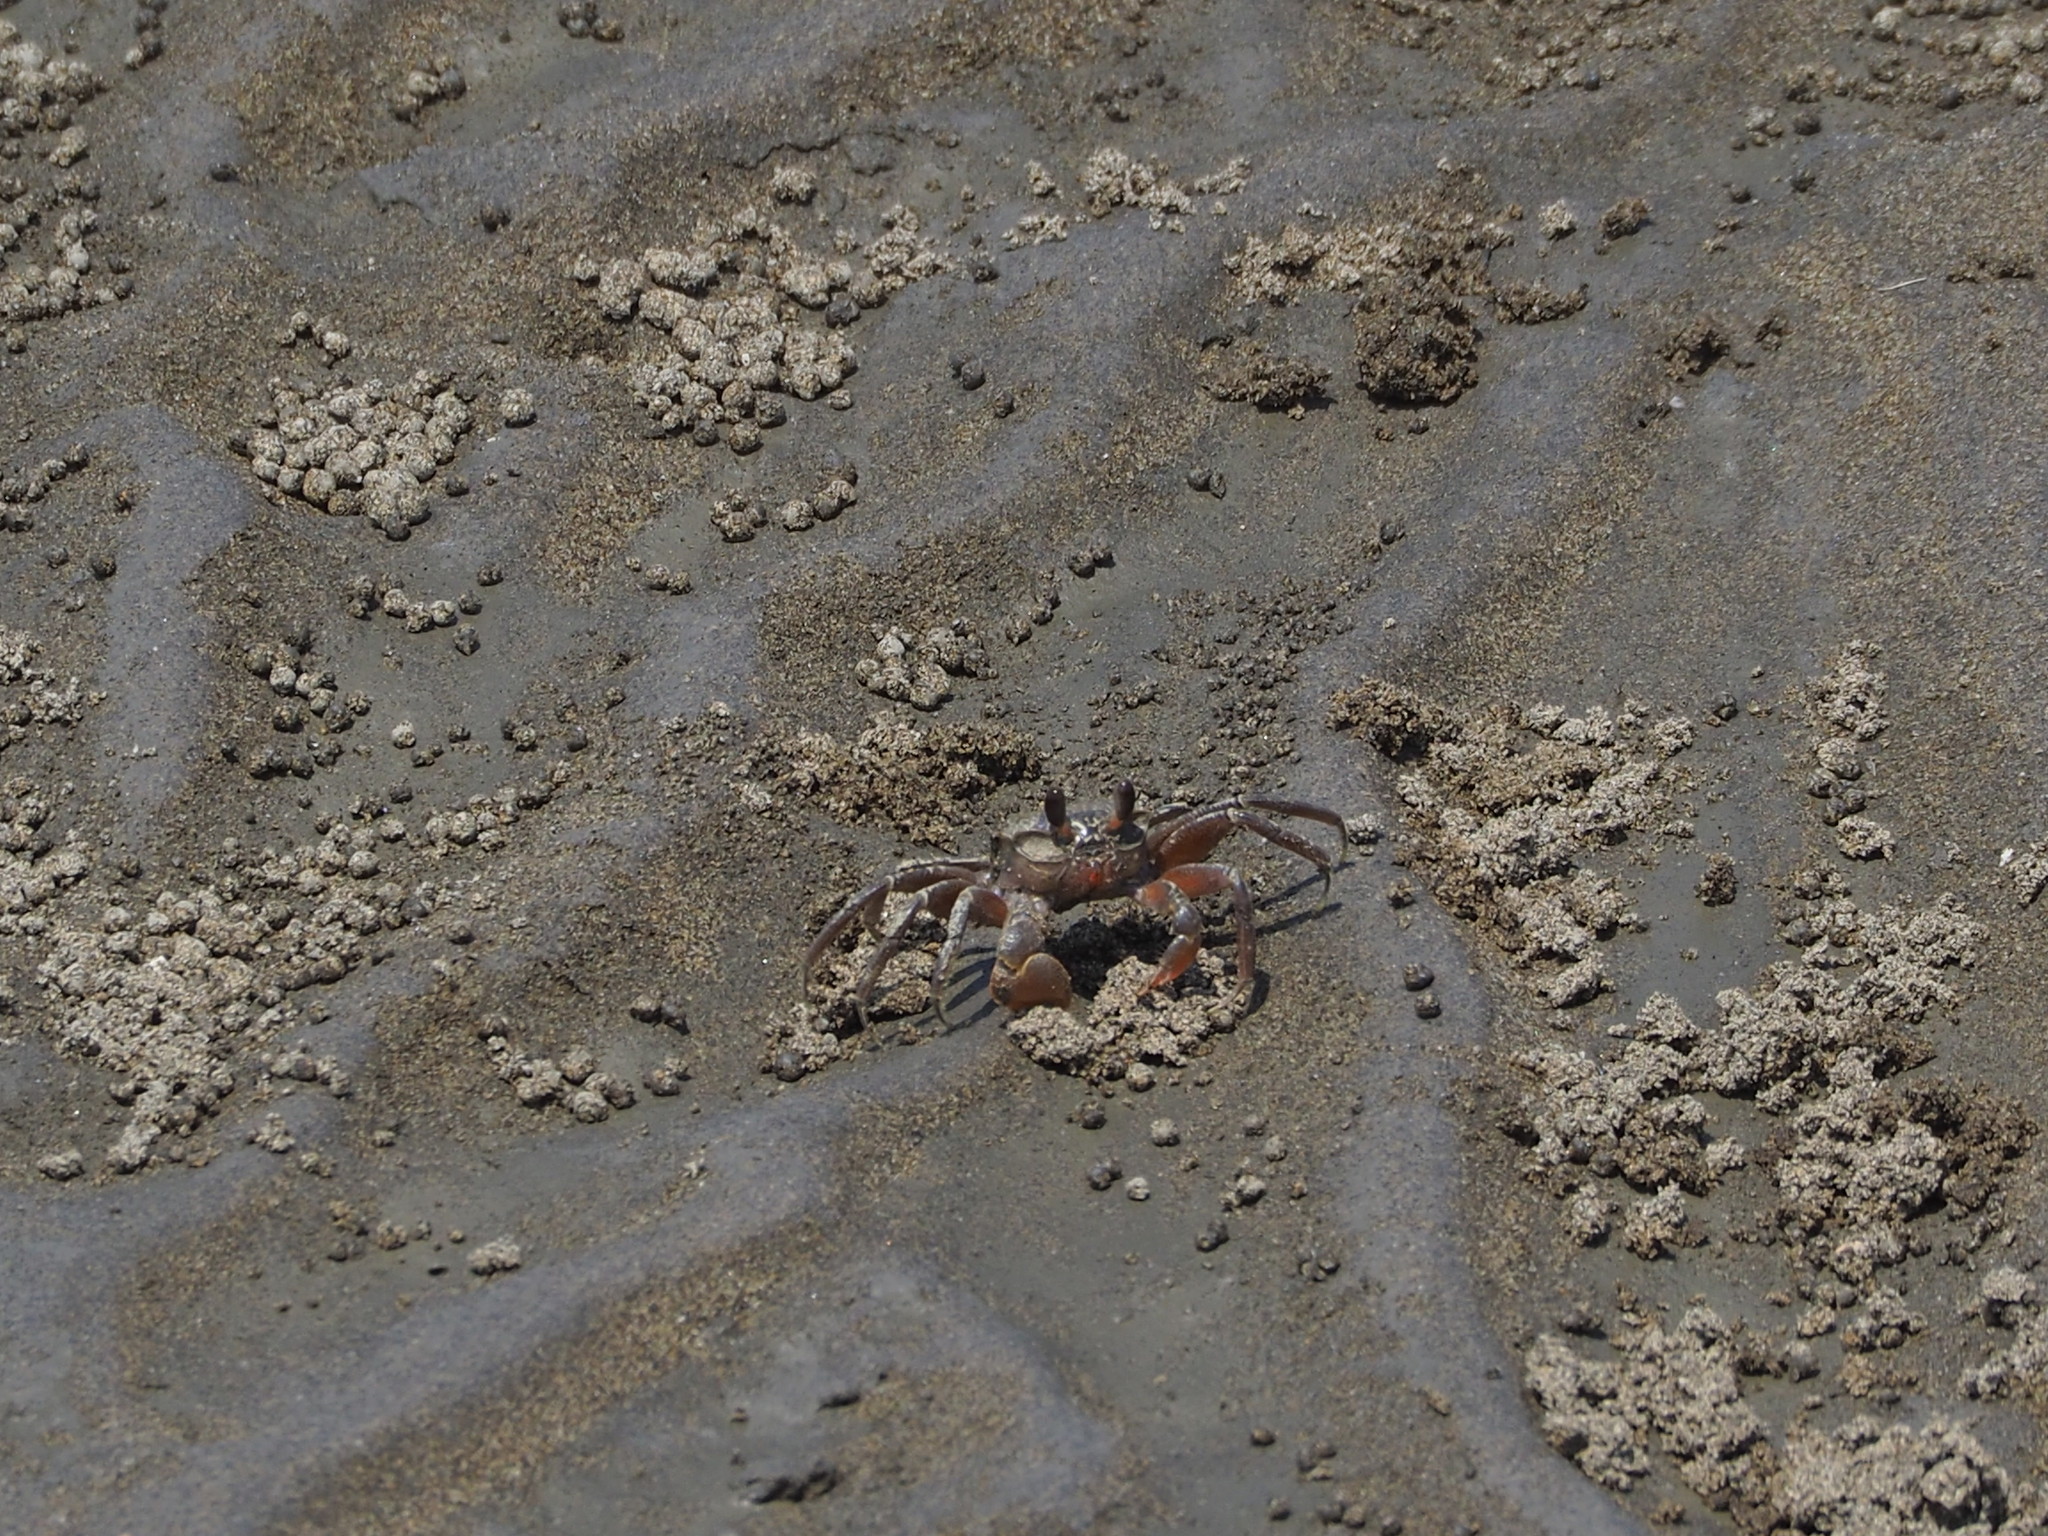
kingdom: Animalia
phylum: Arthropoda
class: Malacostraca
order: Decapoda
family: Ocypodidae
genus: Ocypode
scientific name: Ocypode stimpsoni
